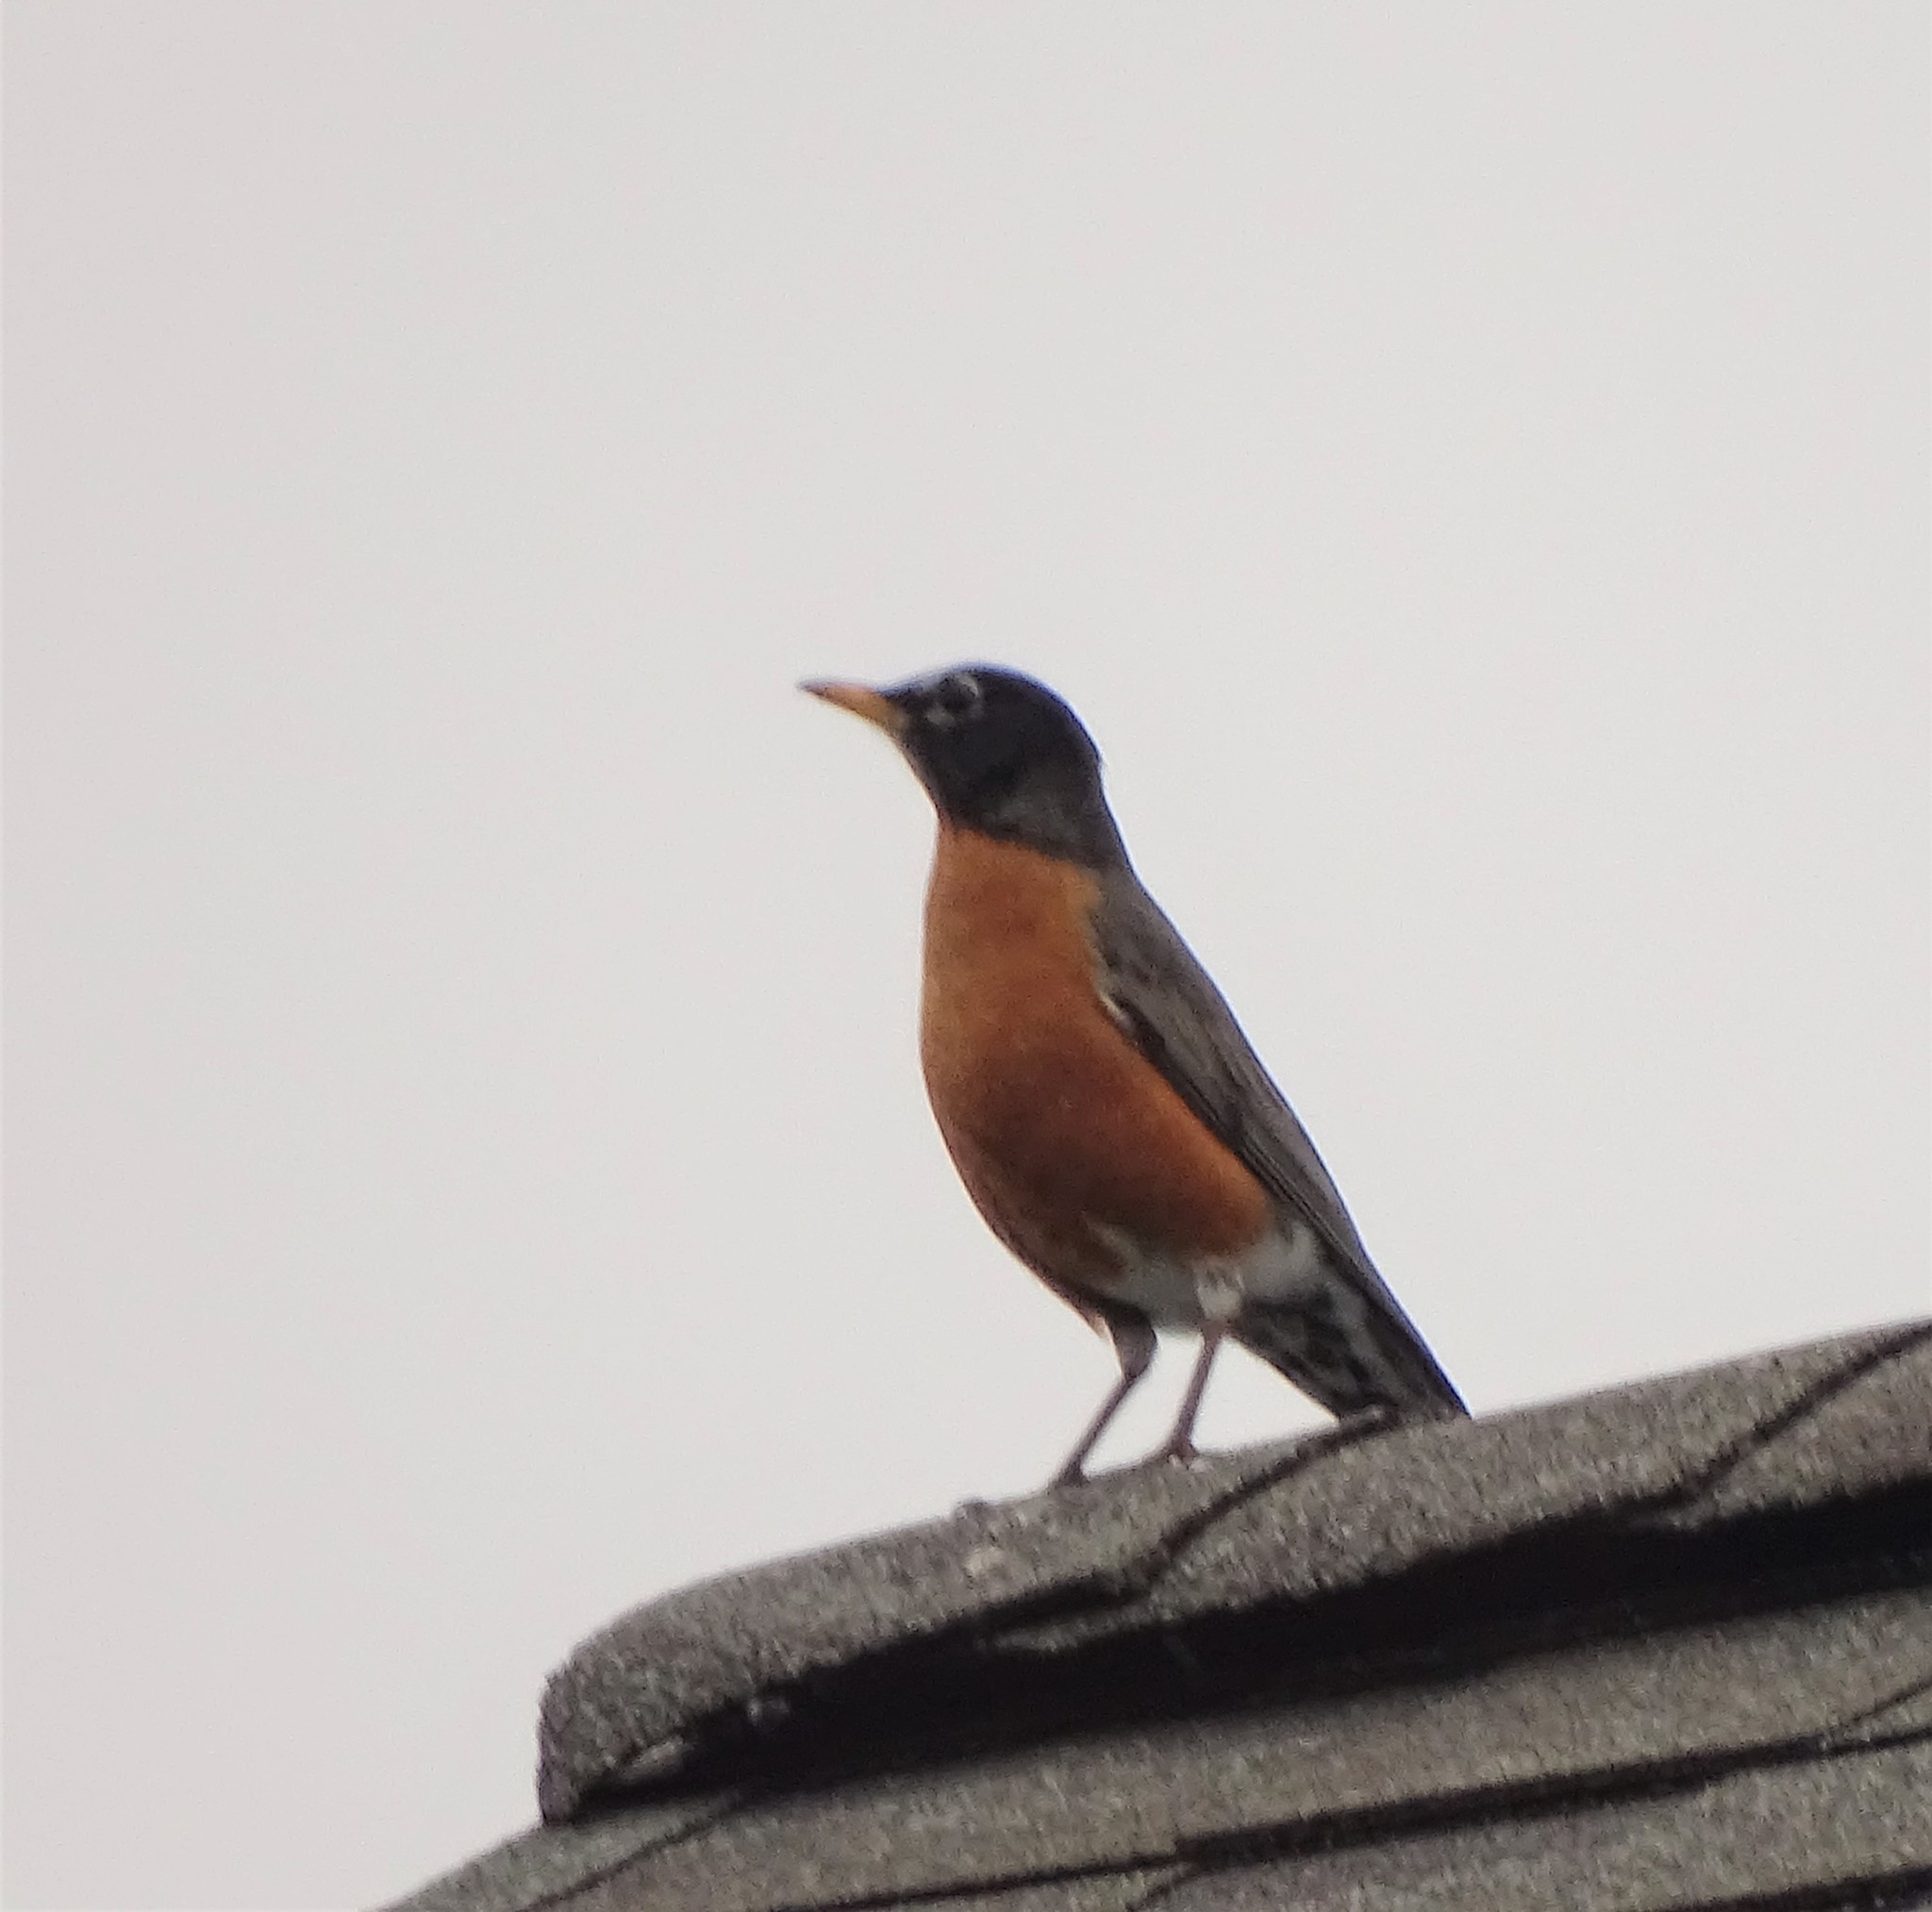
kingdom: Animalia
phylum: Chordata
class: Aves
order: Passeriformes
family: Turdidae
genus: Turdus
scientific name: Turdus migratorius
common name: American robin
